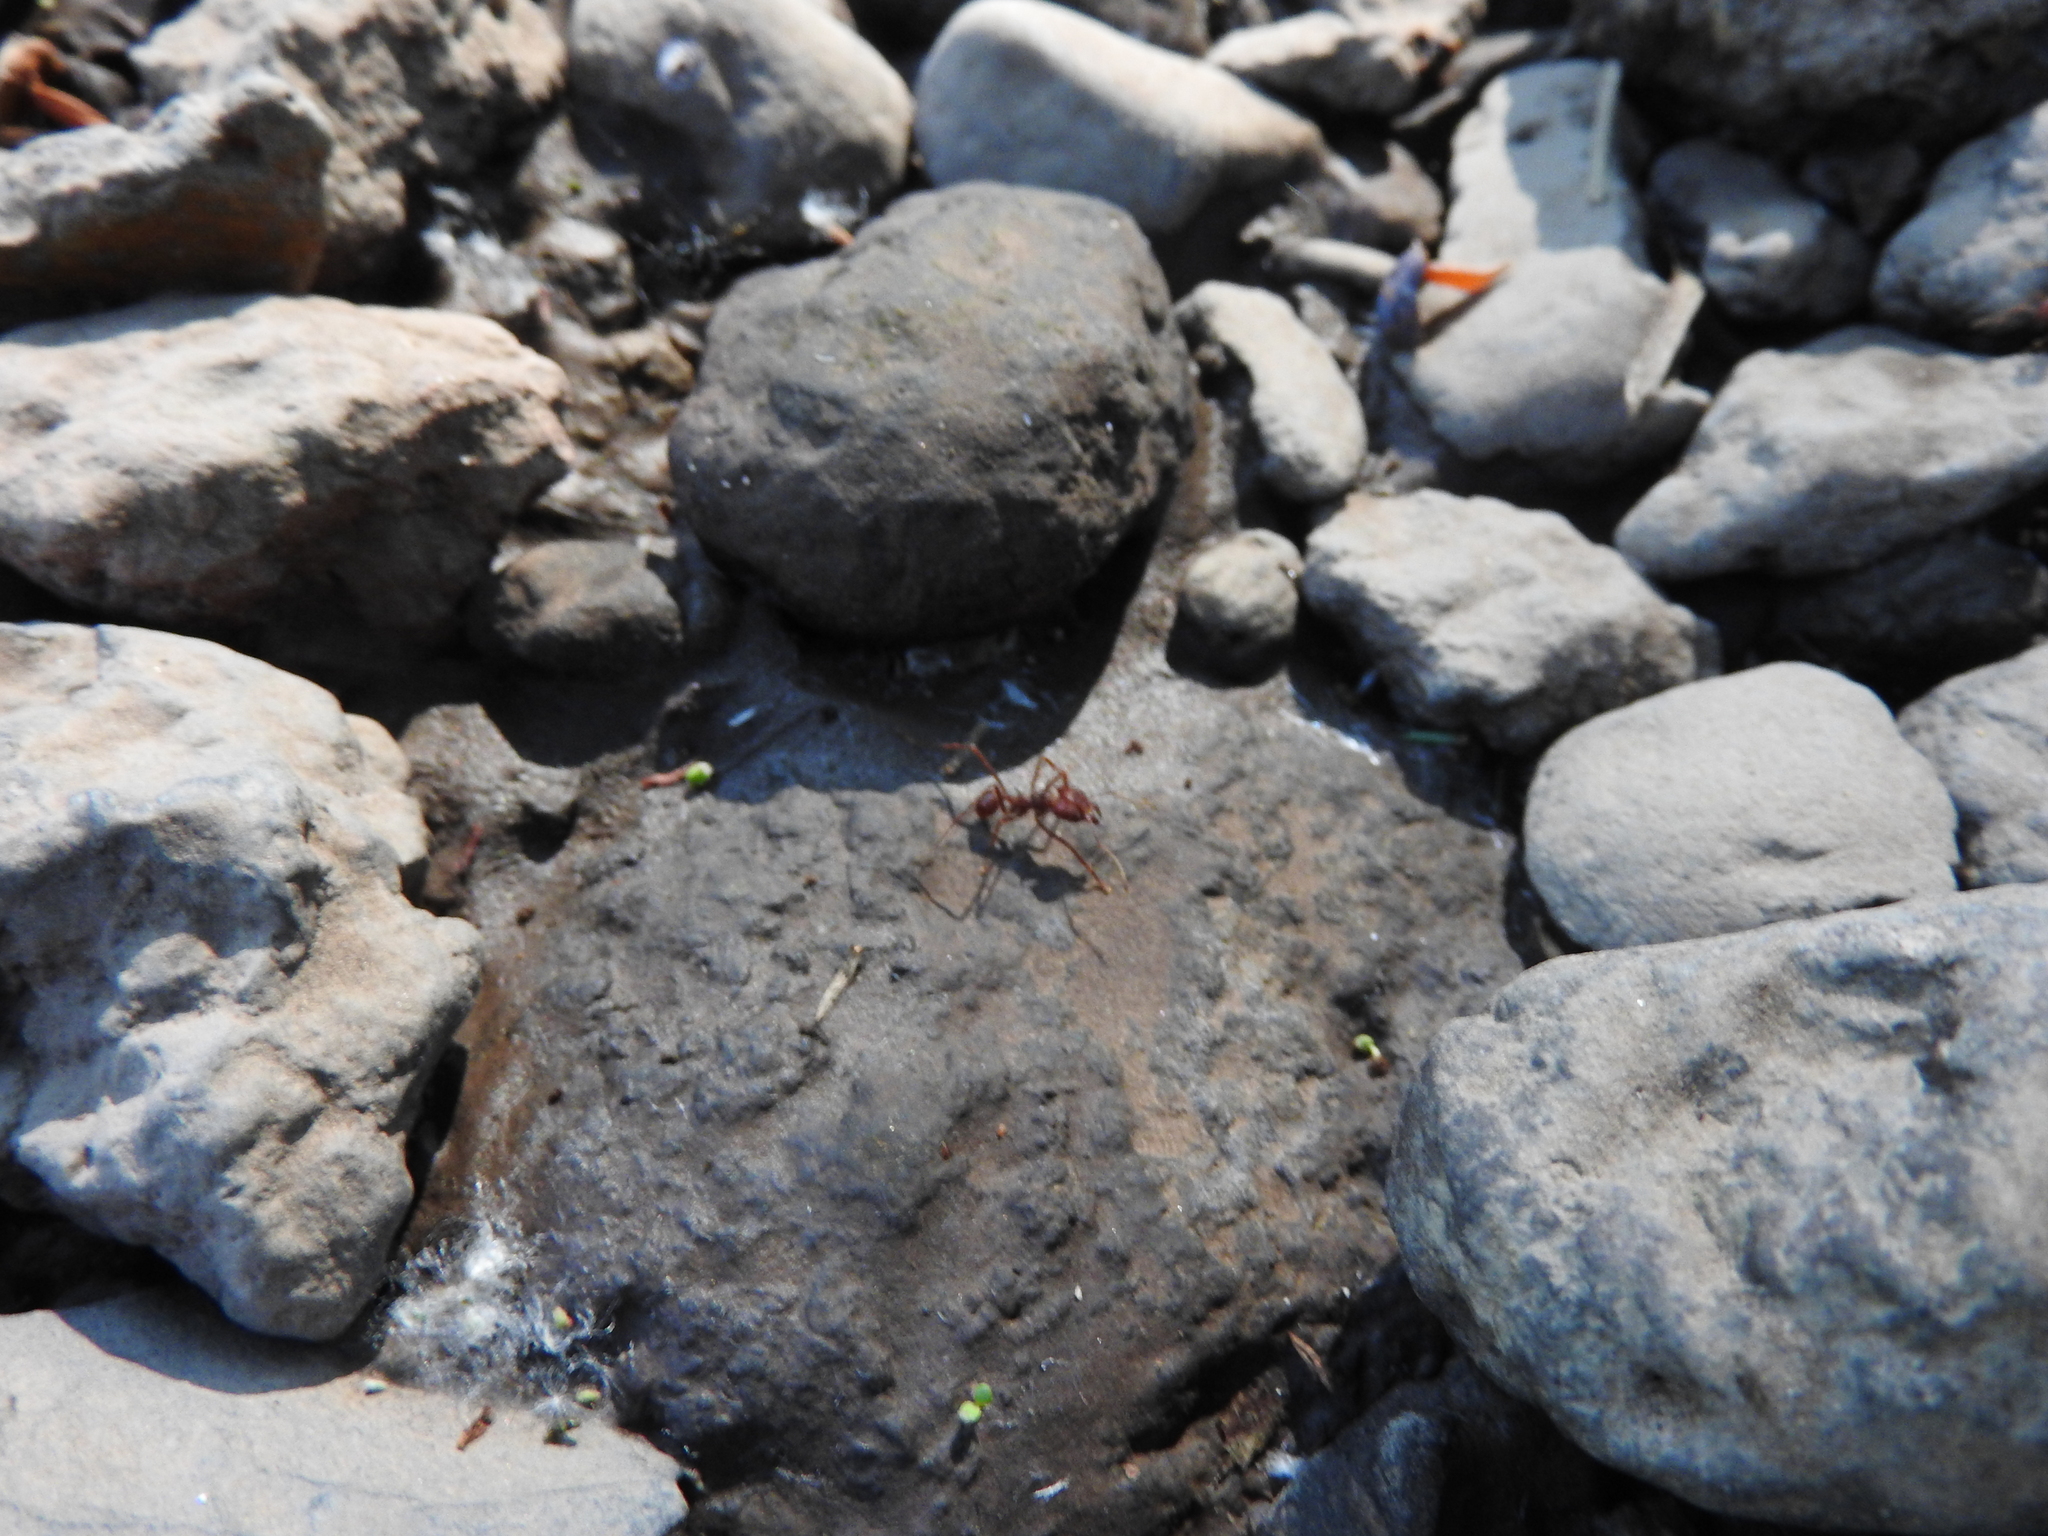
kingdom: Animalia
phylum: Arthropoda
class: Insecta
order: Hymenoptera
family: Formicidae
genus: Atta
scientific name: Atta mexicana
